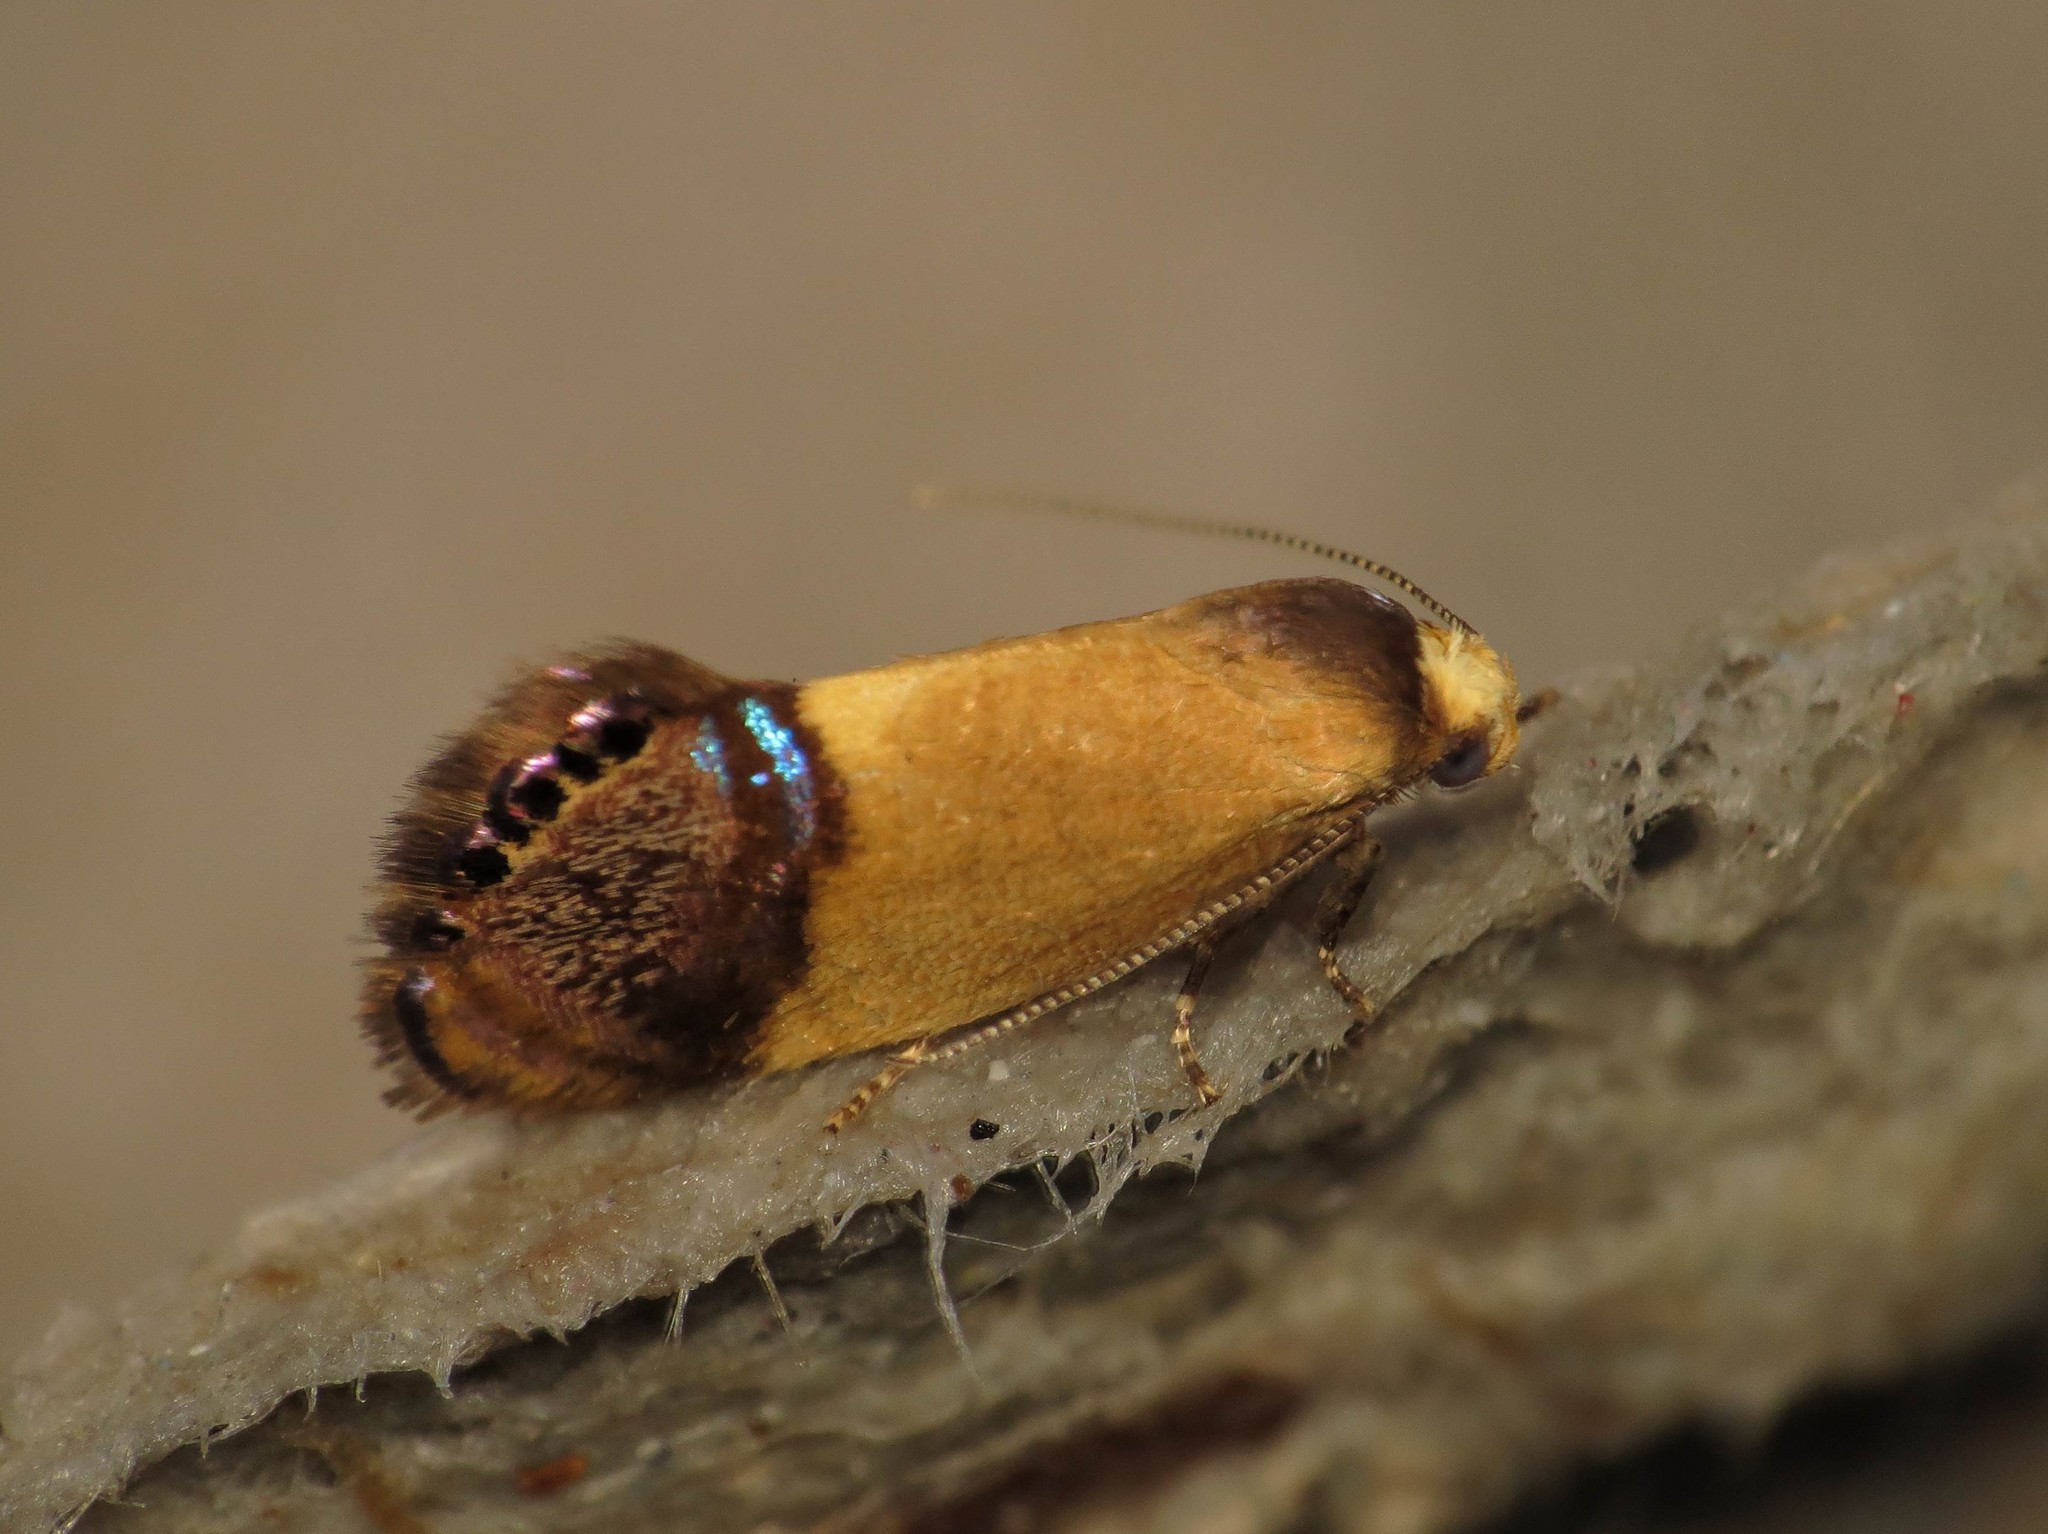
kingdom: Animalia
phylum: Arthropoda
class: Insecta
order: Lepidoptera
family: Depressariidae
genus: Eupselia
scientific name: Eupselia satrapella
